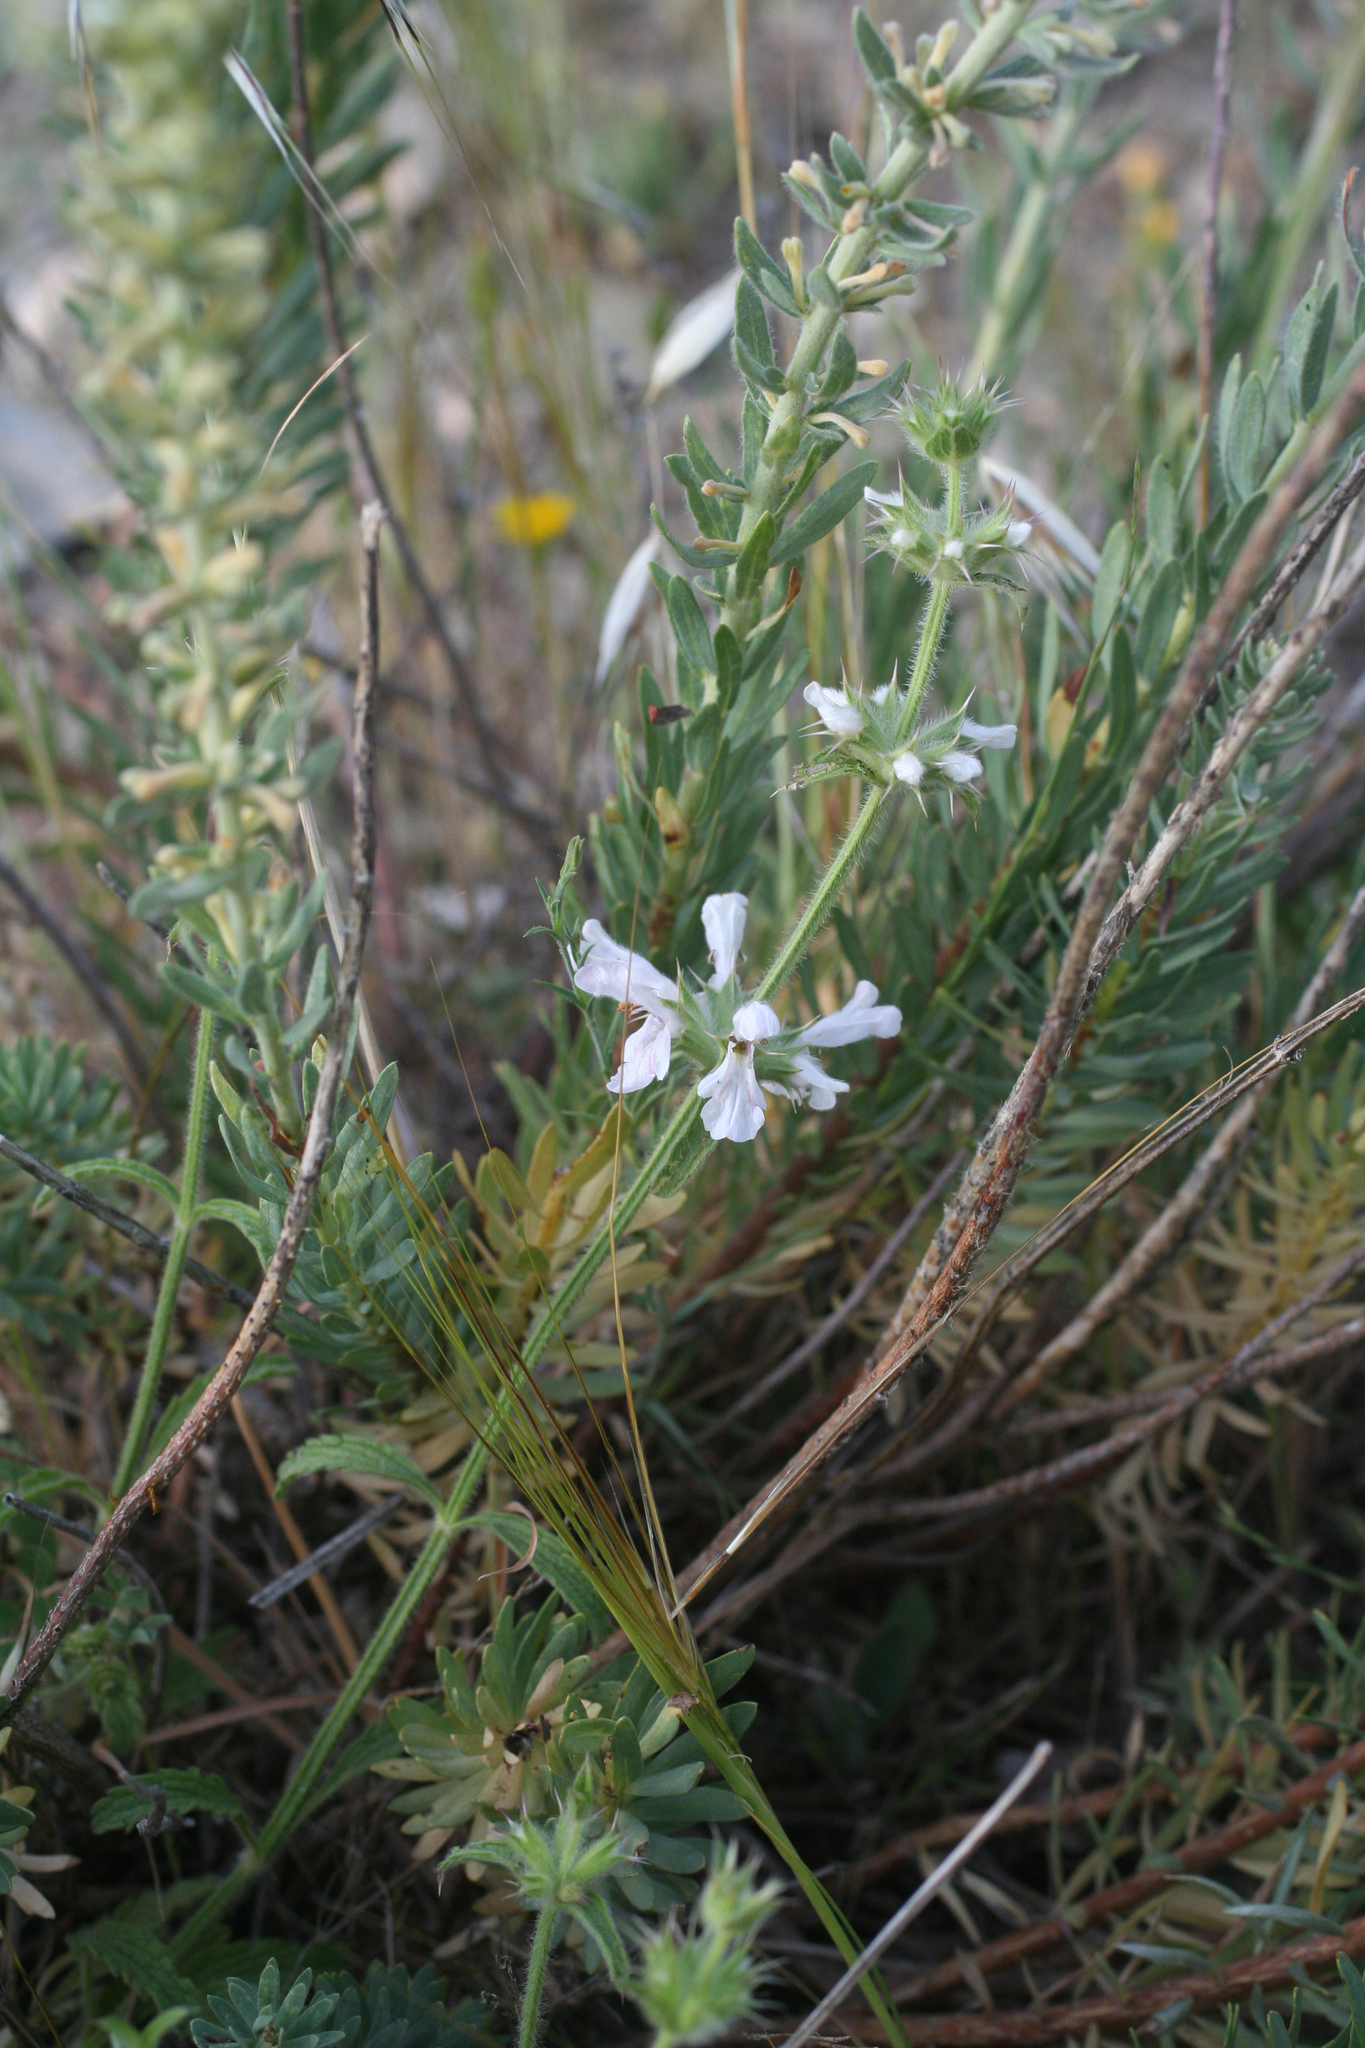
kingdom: Plantae
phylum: Tracheophyta
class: Magnoliopsida
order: Lamiales
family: Lamiaceae
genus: Stachys
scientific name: Stachys arenaria
